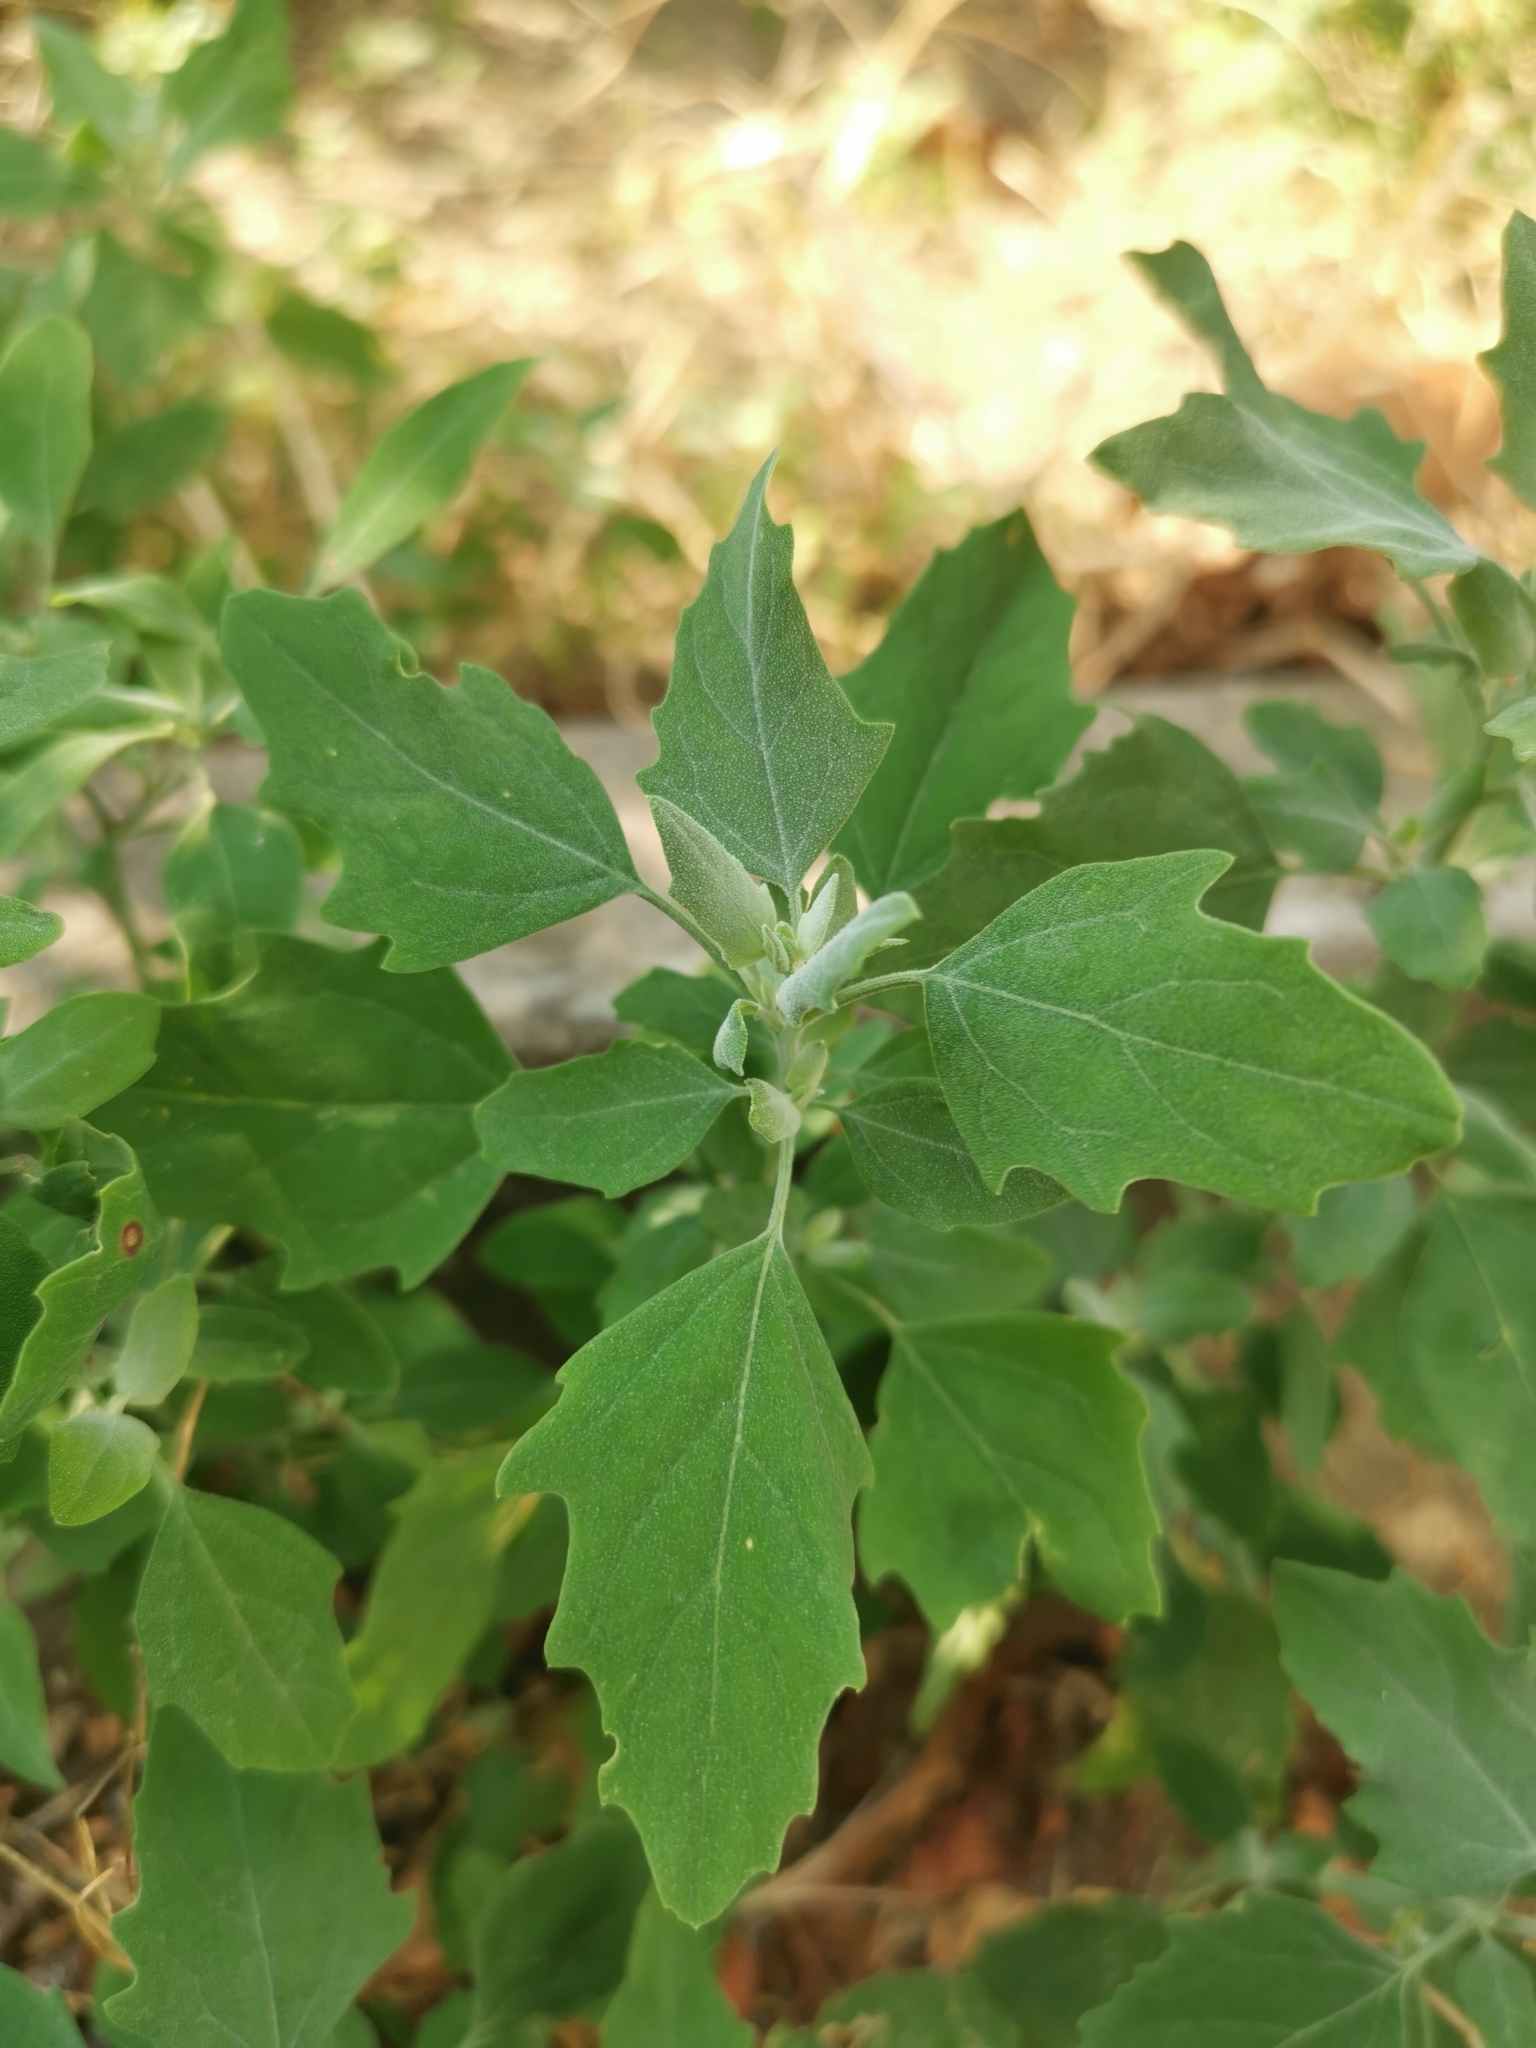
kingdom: Plantae
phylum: Tracheophyta
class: Magnoliopsida
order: Caryophyllales
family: Amaranthaceae
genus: Chenopodium
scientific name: Chenopodium album
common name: Fat-hen
